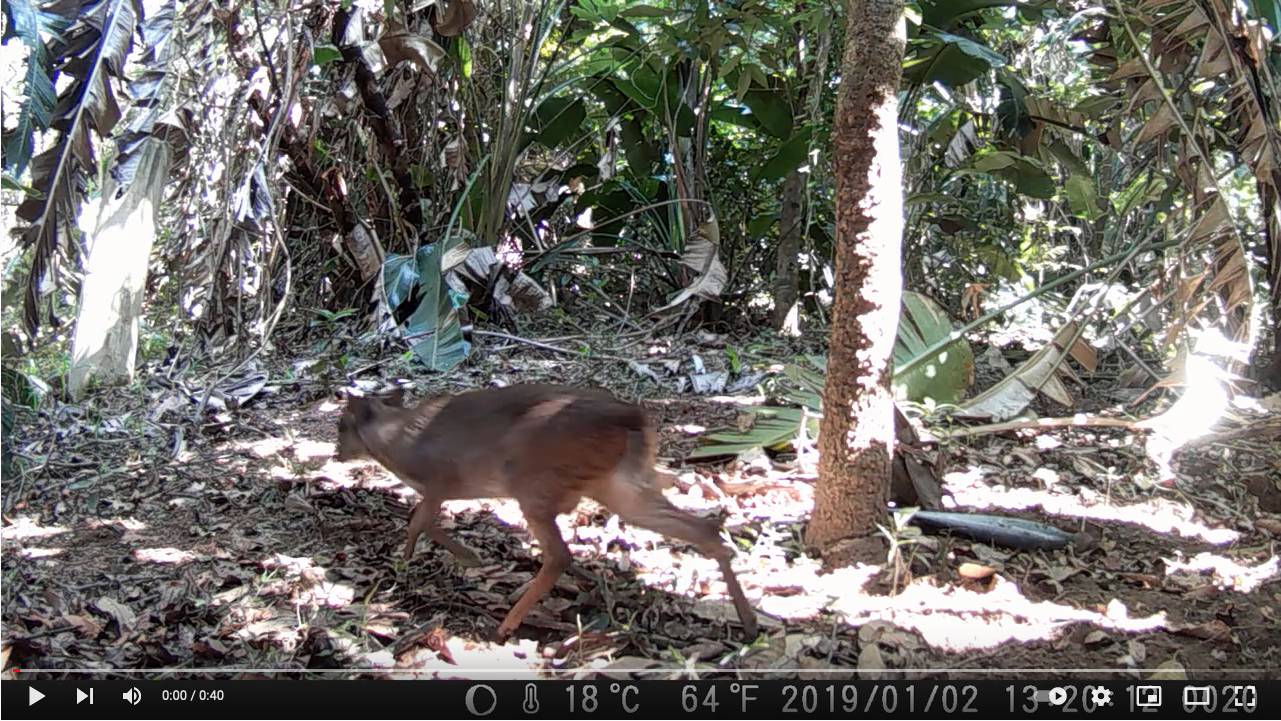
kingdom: Animalia
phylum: Chordata
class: Mammalia
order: Artiodactyla
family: Bovidae
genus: Philantomba
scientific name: Philantomba monticola
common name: Blue duiker
